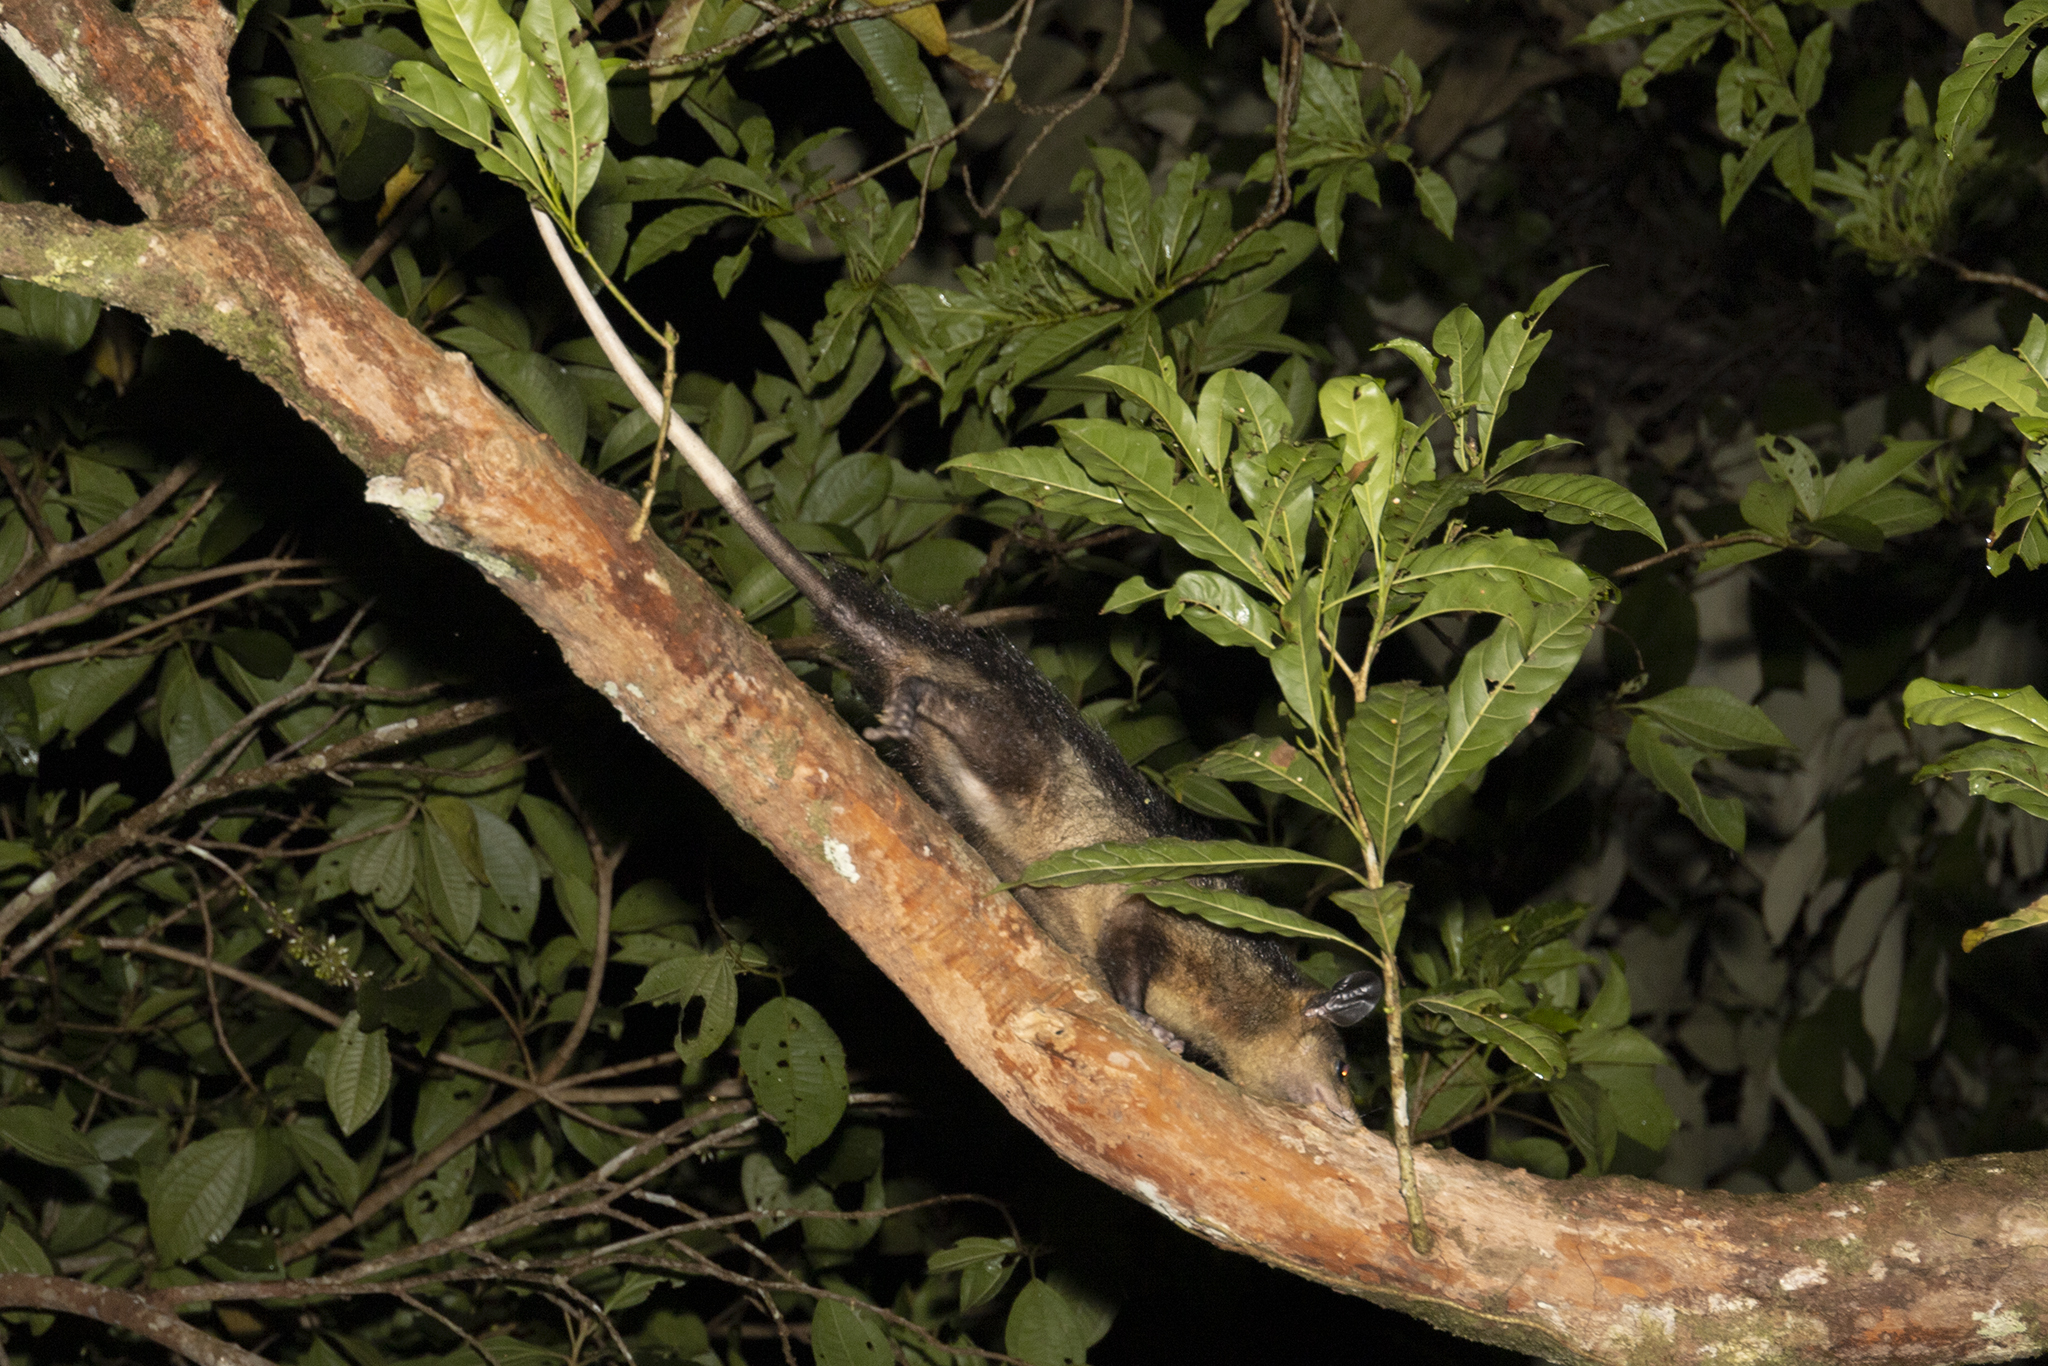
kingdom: Animalia
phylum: Chordata
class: Mammalia
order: Didelphimorphia
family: Didelphidae
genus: Didelphis
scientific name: Didelphis marsupialis
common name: Common opossum
